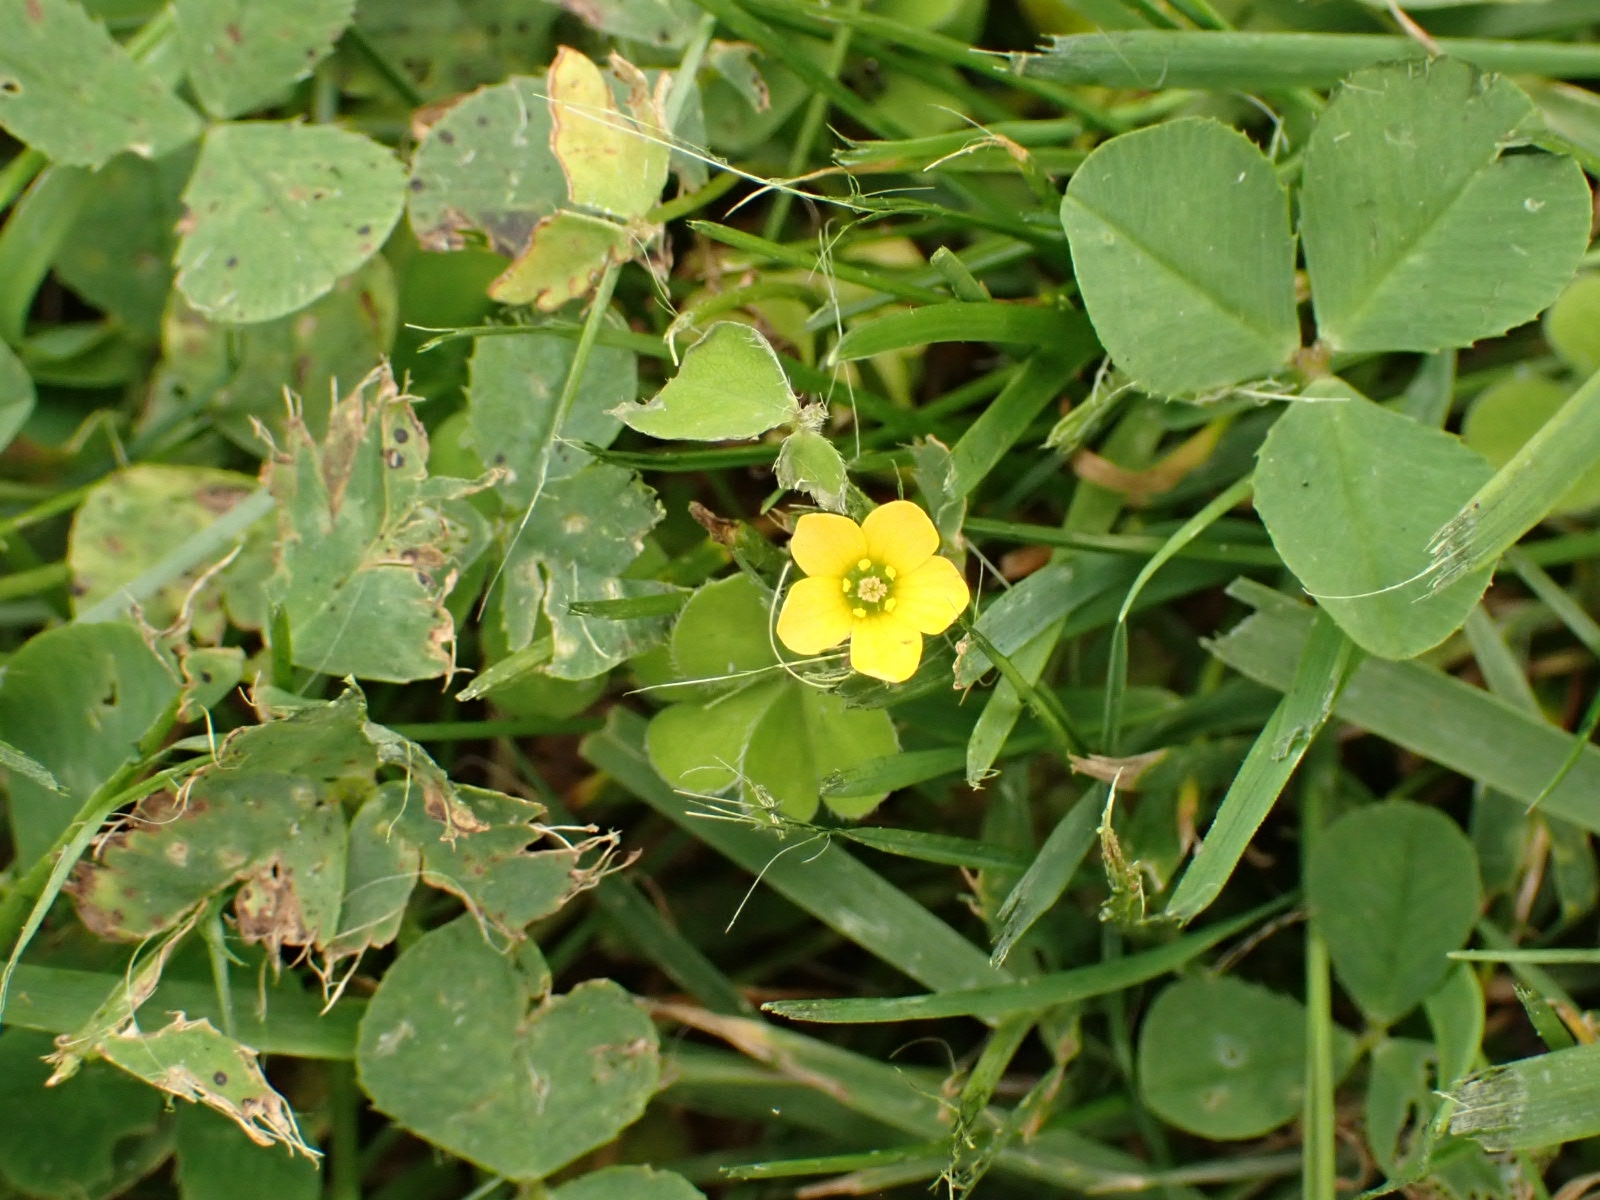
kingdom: Plantae
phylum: Tracheophyta
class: Magnoliopsida
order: Oxalidales
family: Oxalidaceae
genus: Oxalis
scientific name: Oxalis exilis
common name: Least yellow-sorrel
